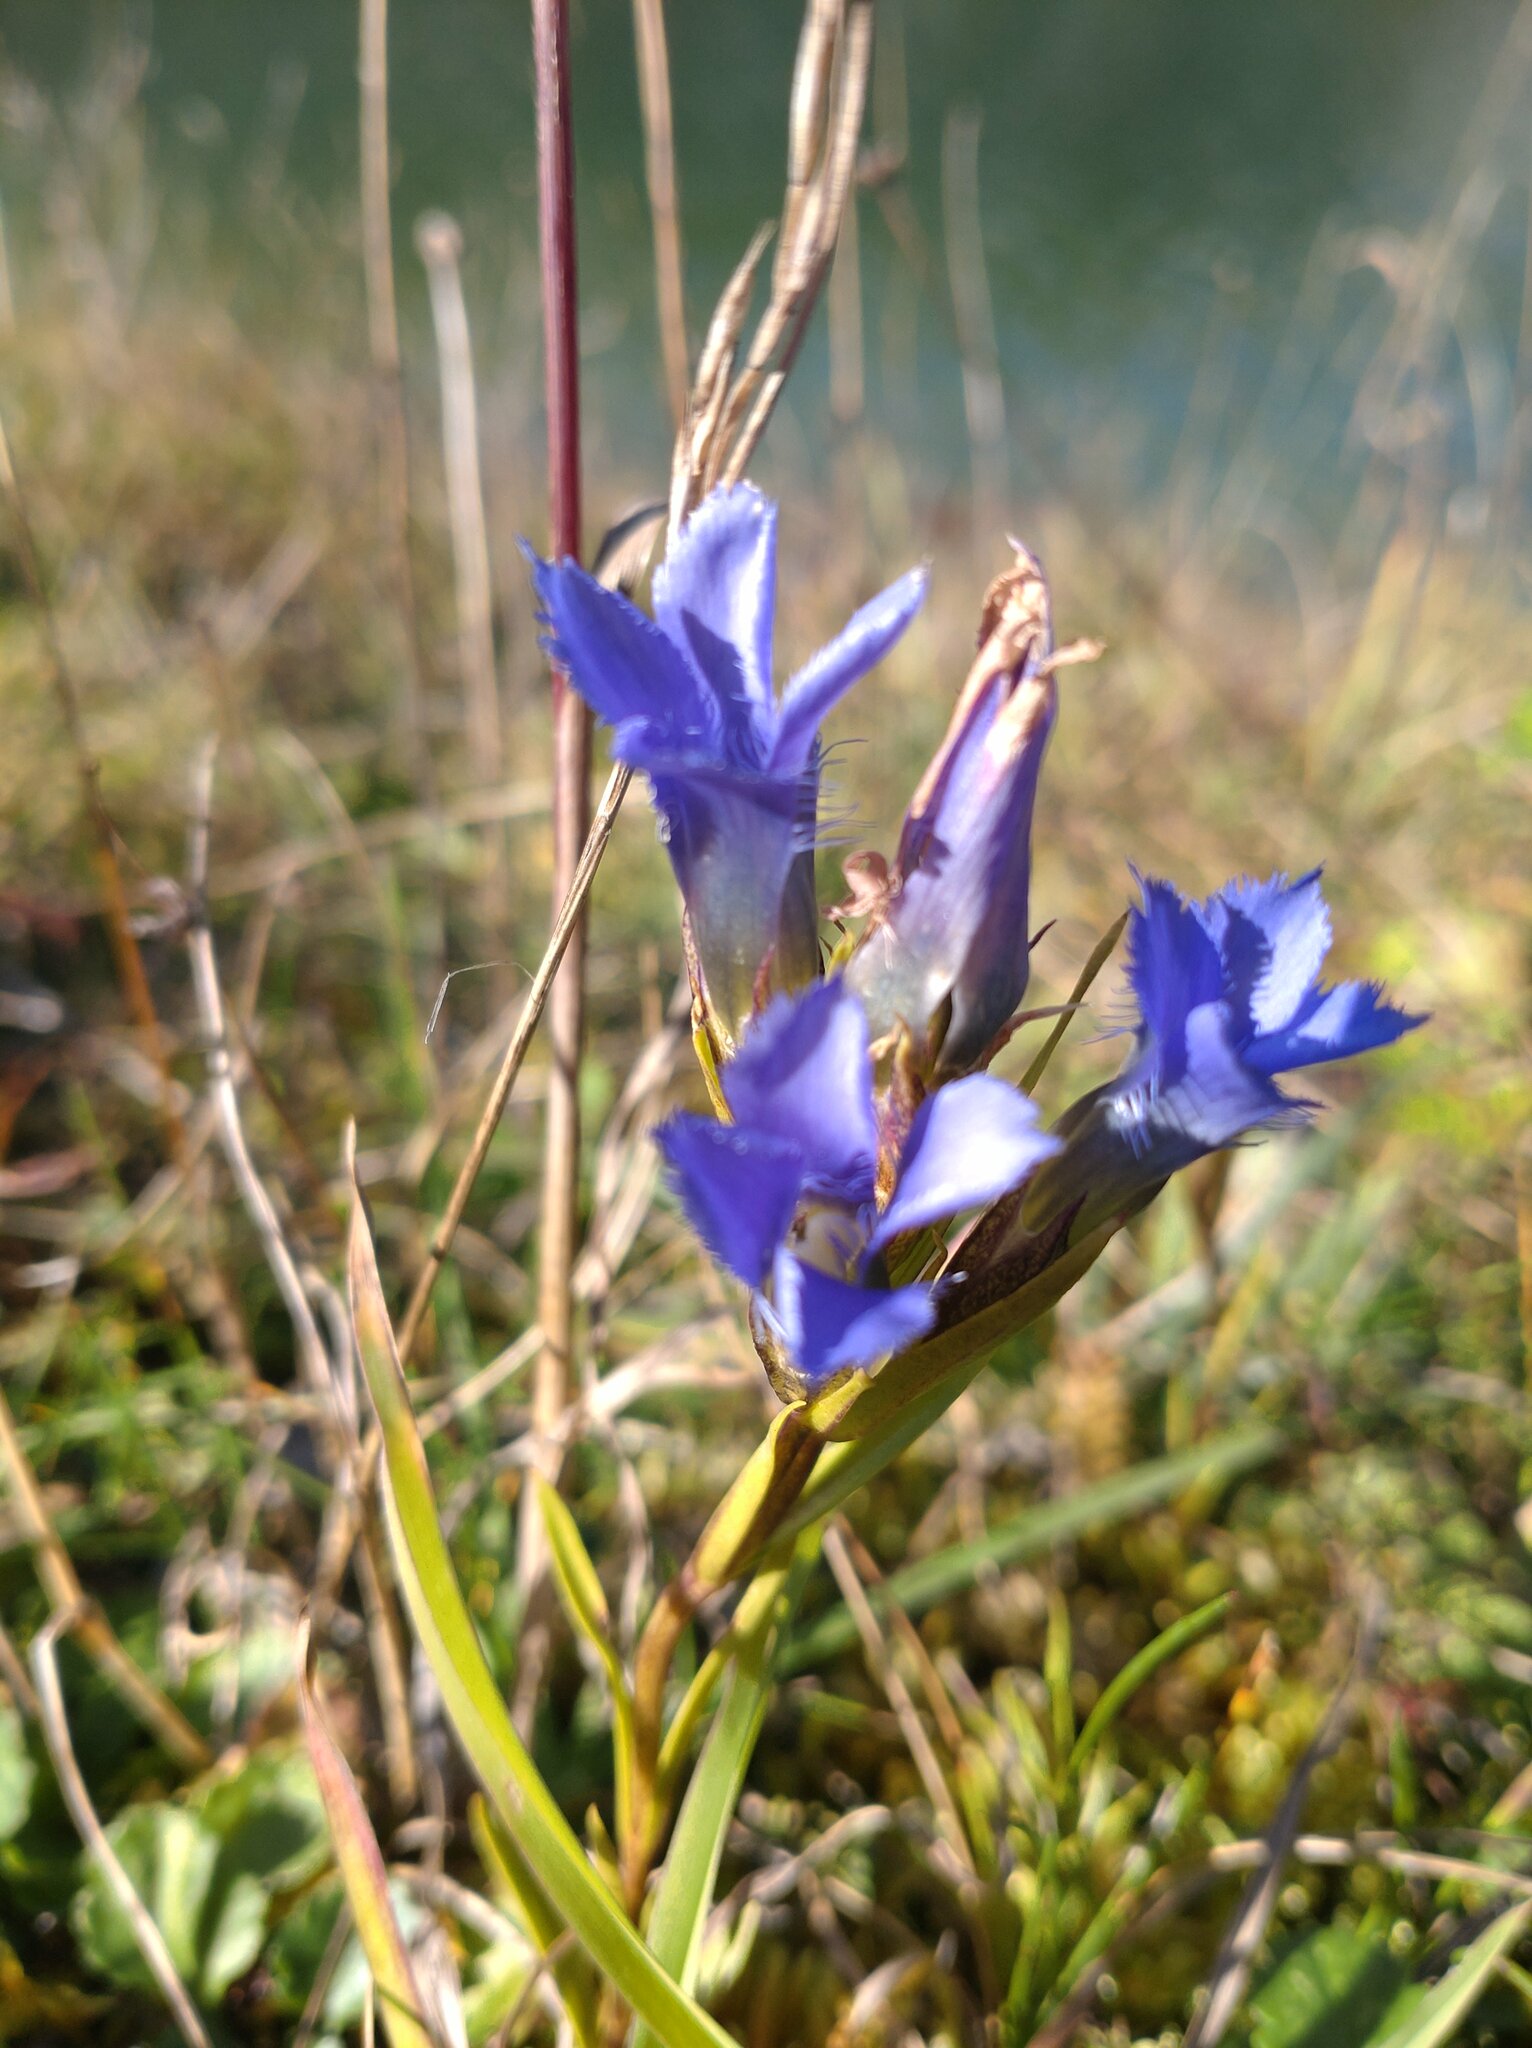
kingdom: Plantae
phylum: Tracheophyta
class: Magnoliopsida
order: Gentianales
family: Gentianaceae
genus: Gentianopsis
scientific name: Gentianopsis ciliata
